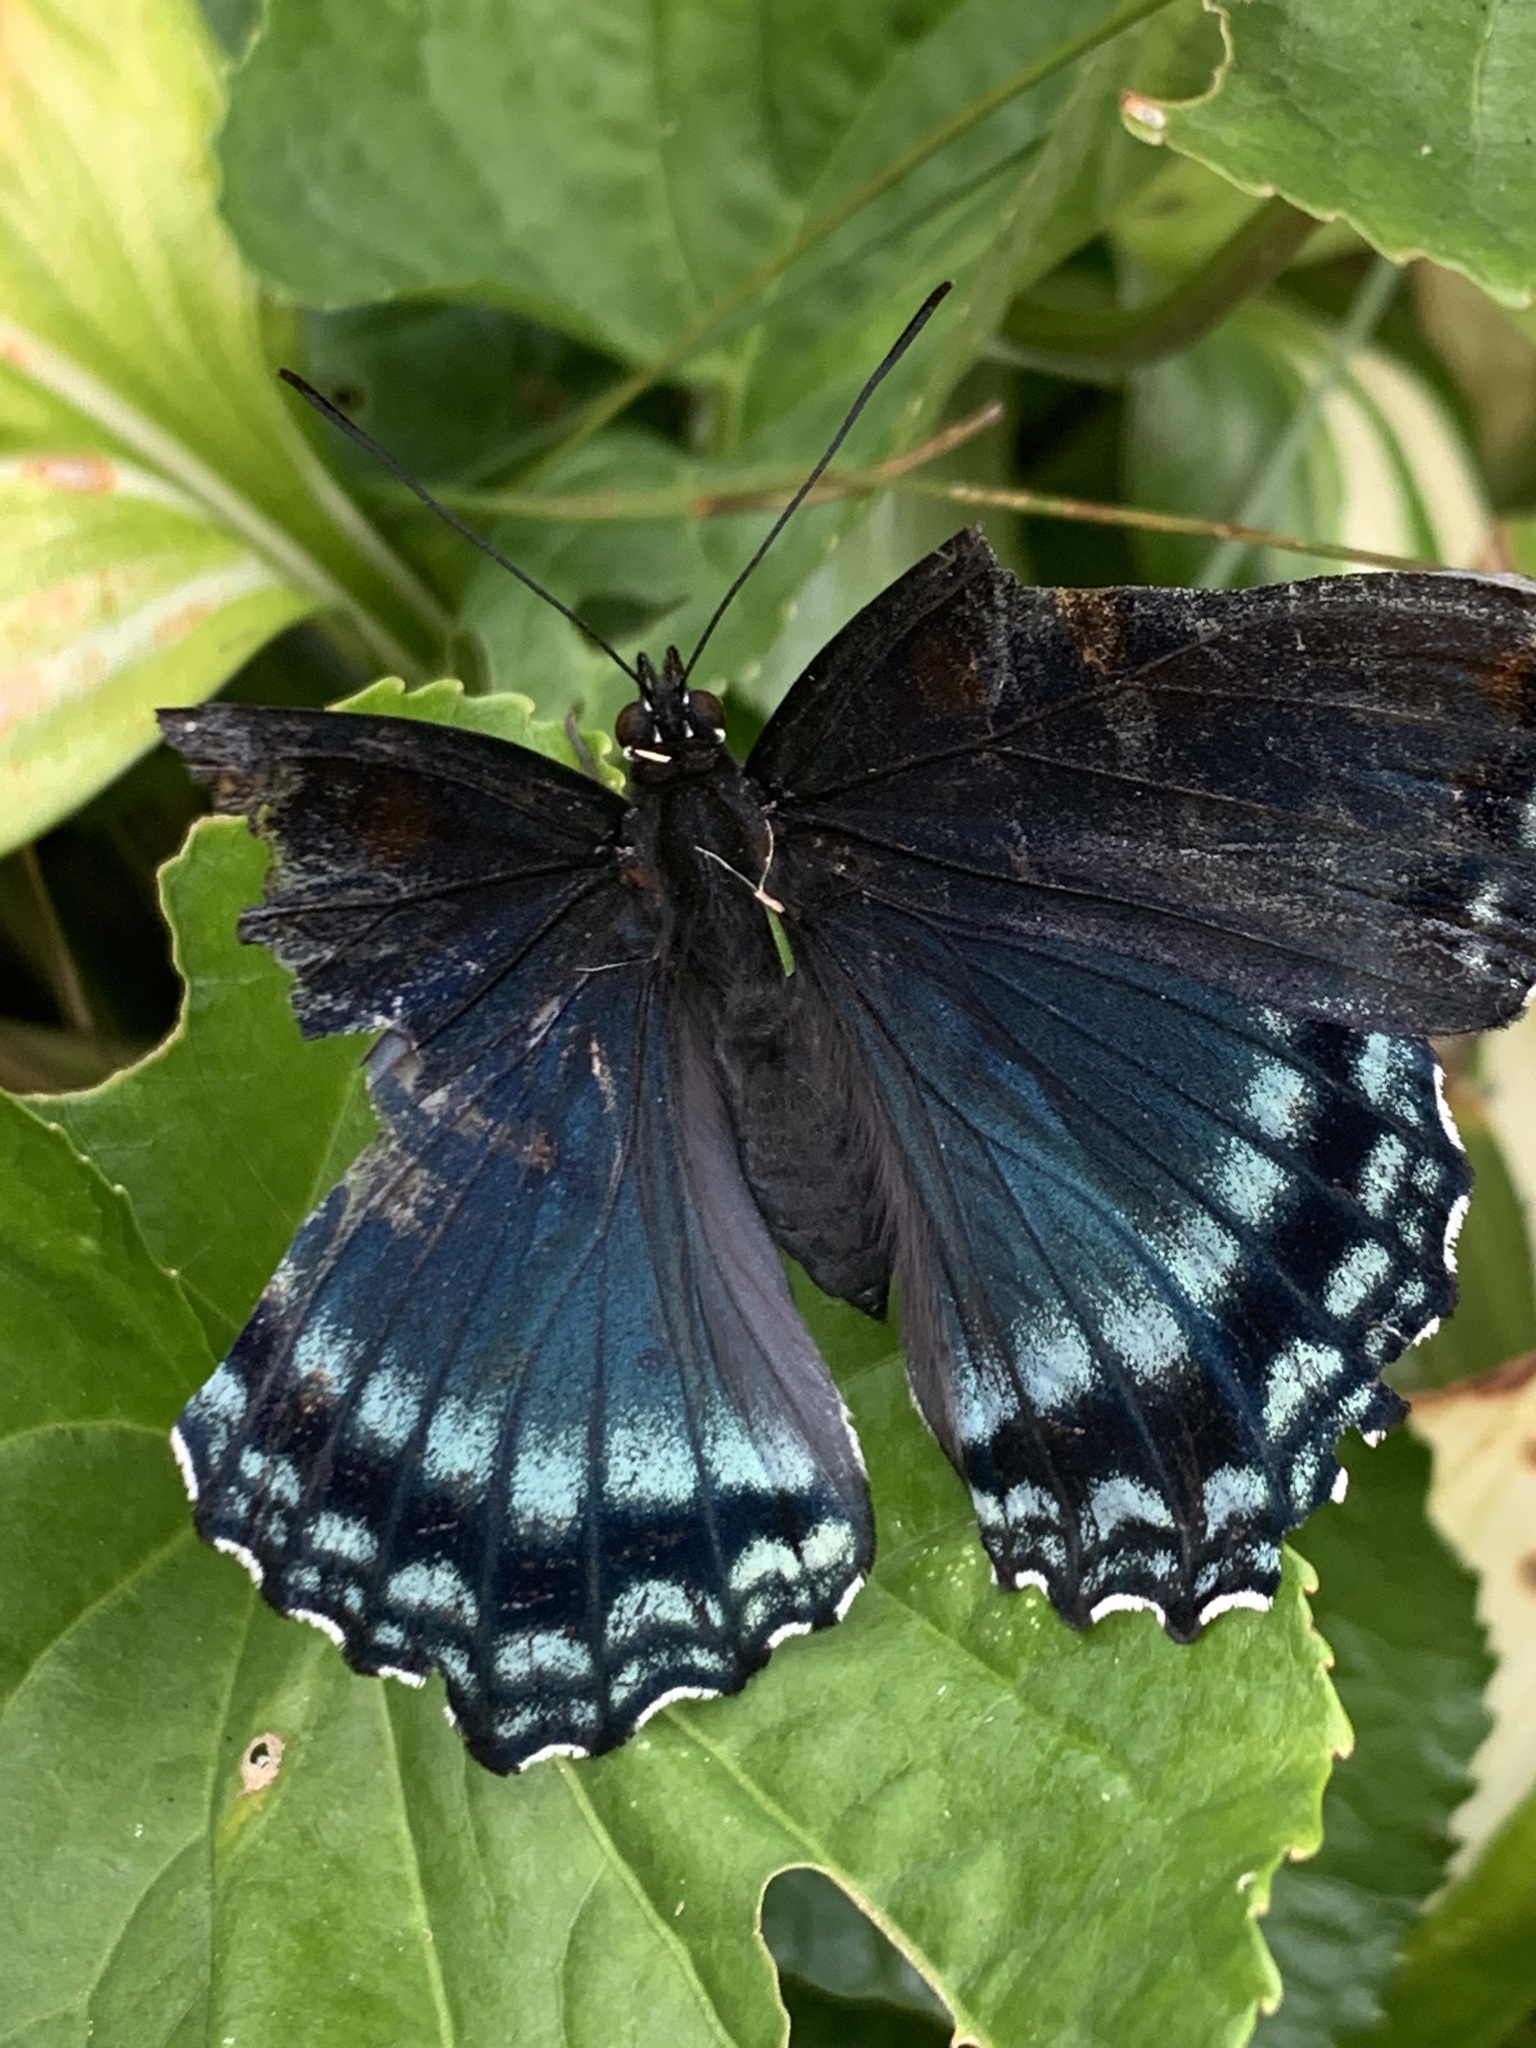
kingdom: Animalia
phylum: Arthropoda
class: Insecta
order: Lepidoptera
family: Nymphalidae
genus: Limenitis
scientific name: Limenitis arthemis
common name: Red-spotted admiral
